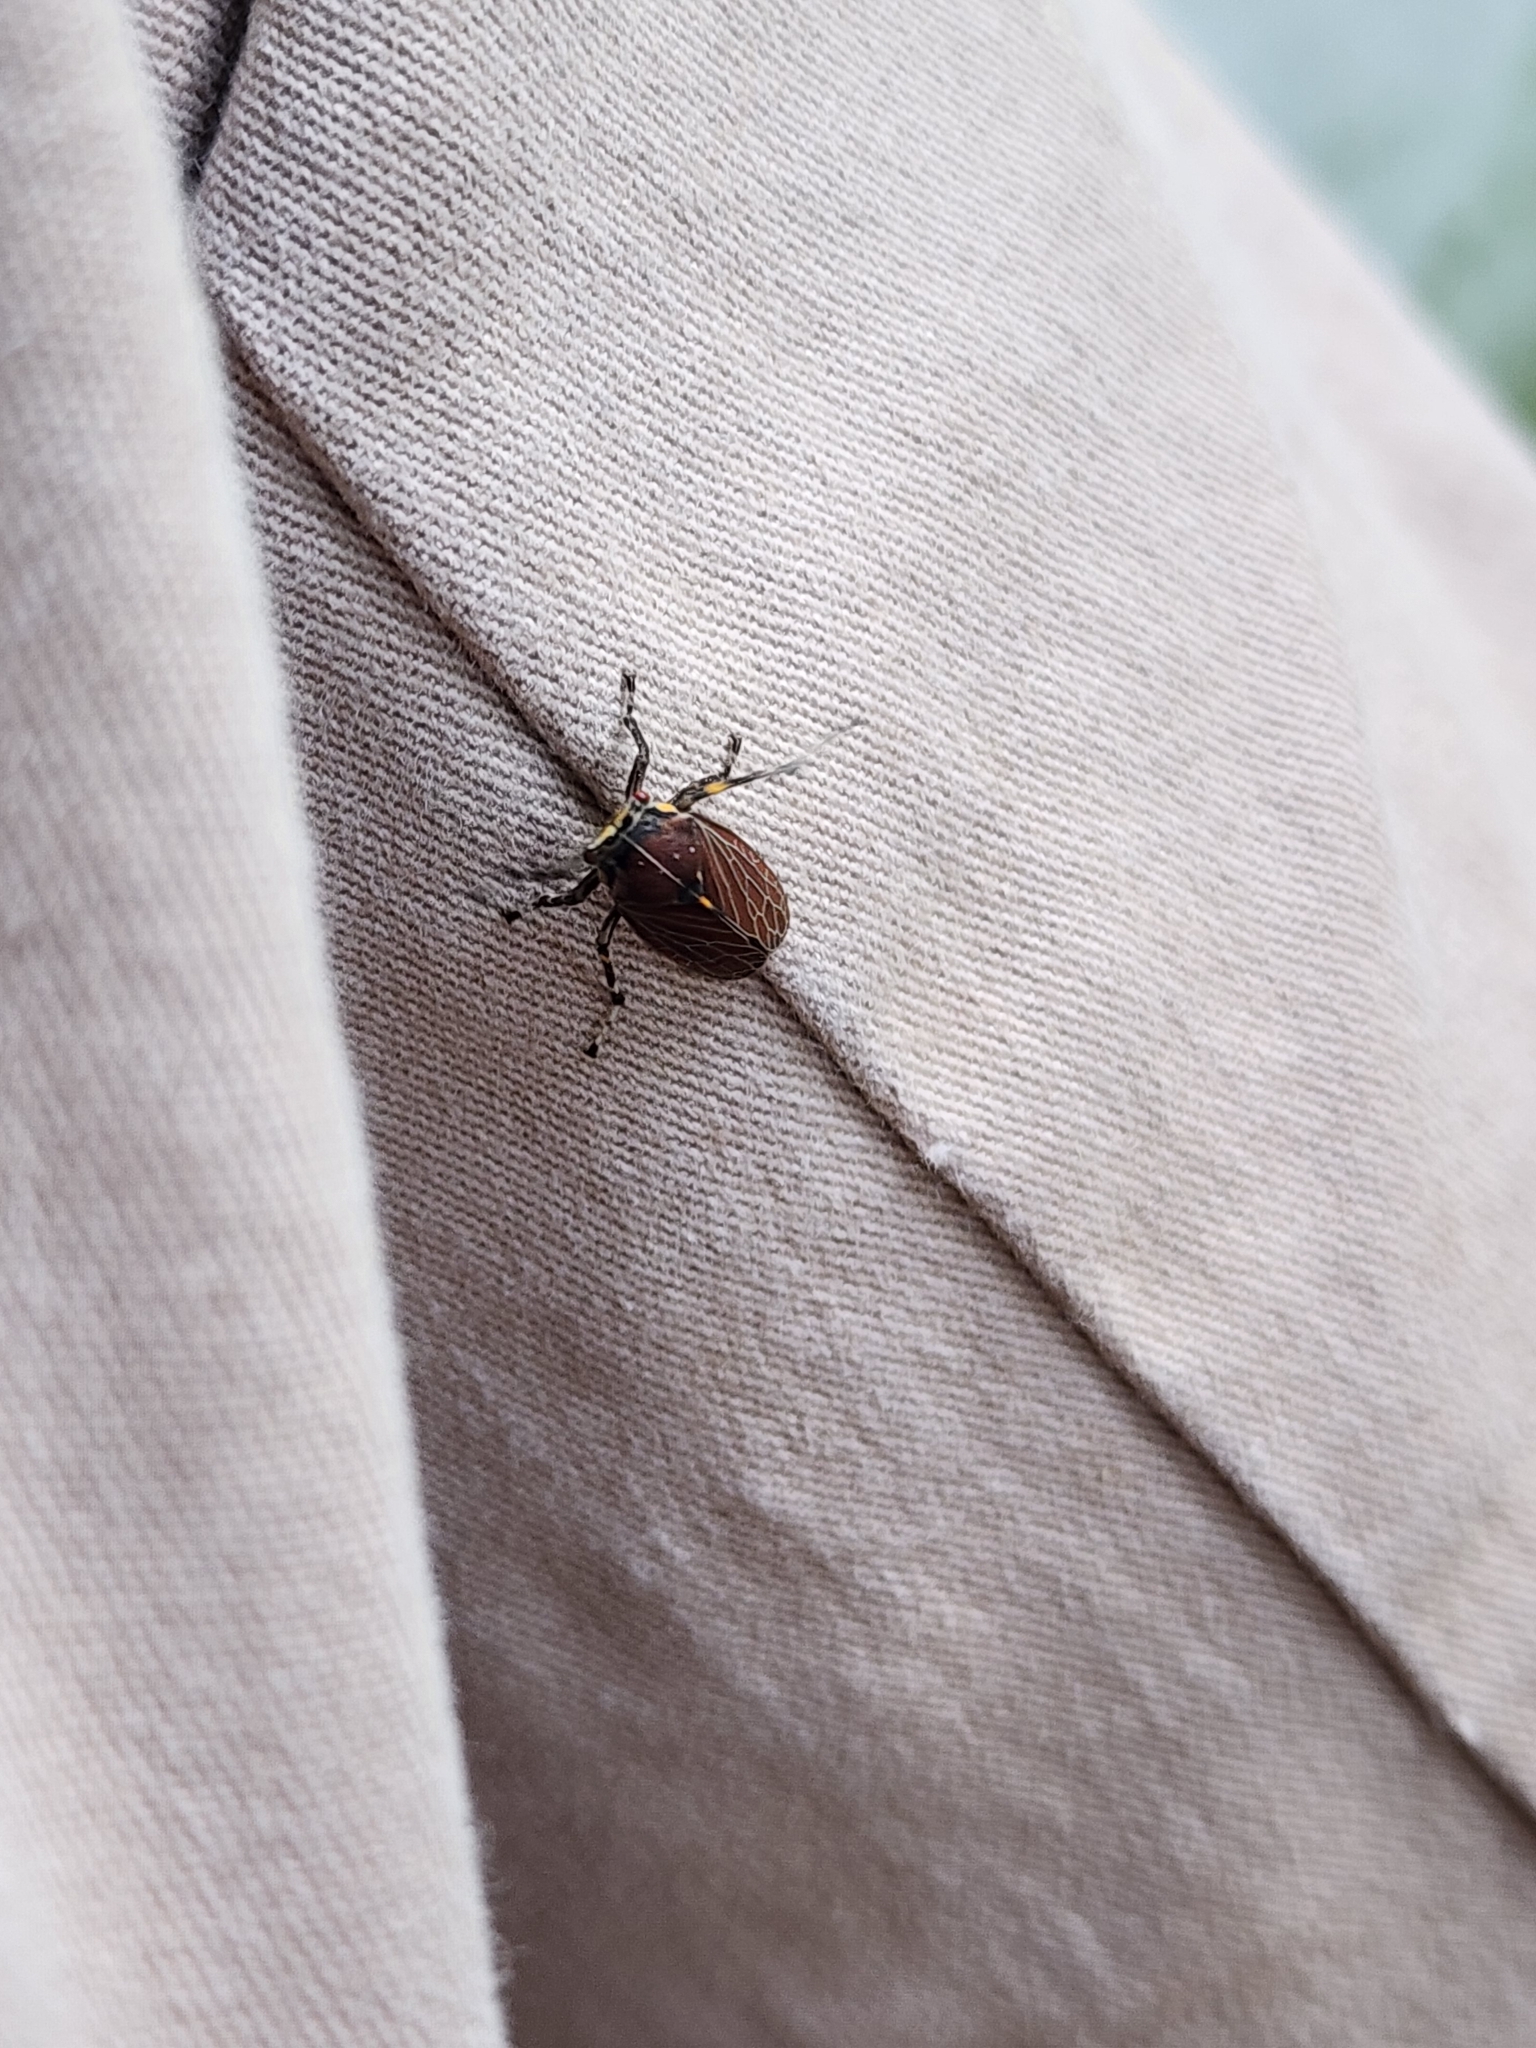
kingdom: Animalia
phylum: Arthropoda
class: Insecta
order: Hemiptera
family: Aetalionidae
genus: Aetalion
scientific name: Aetalion reticulatum
